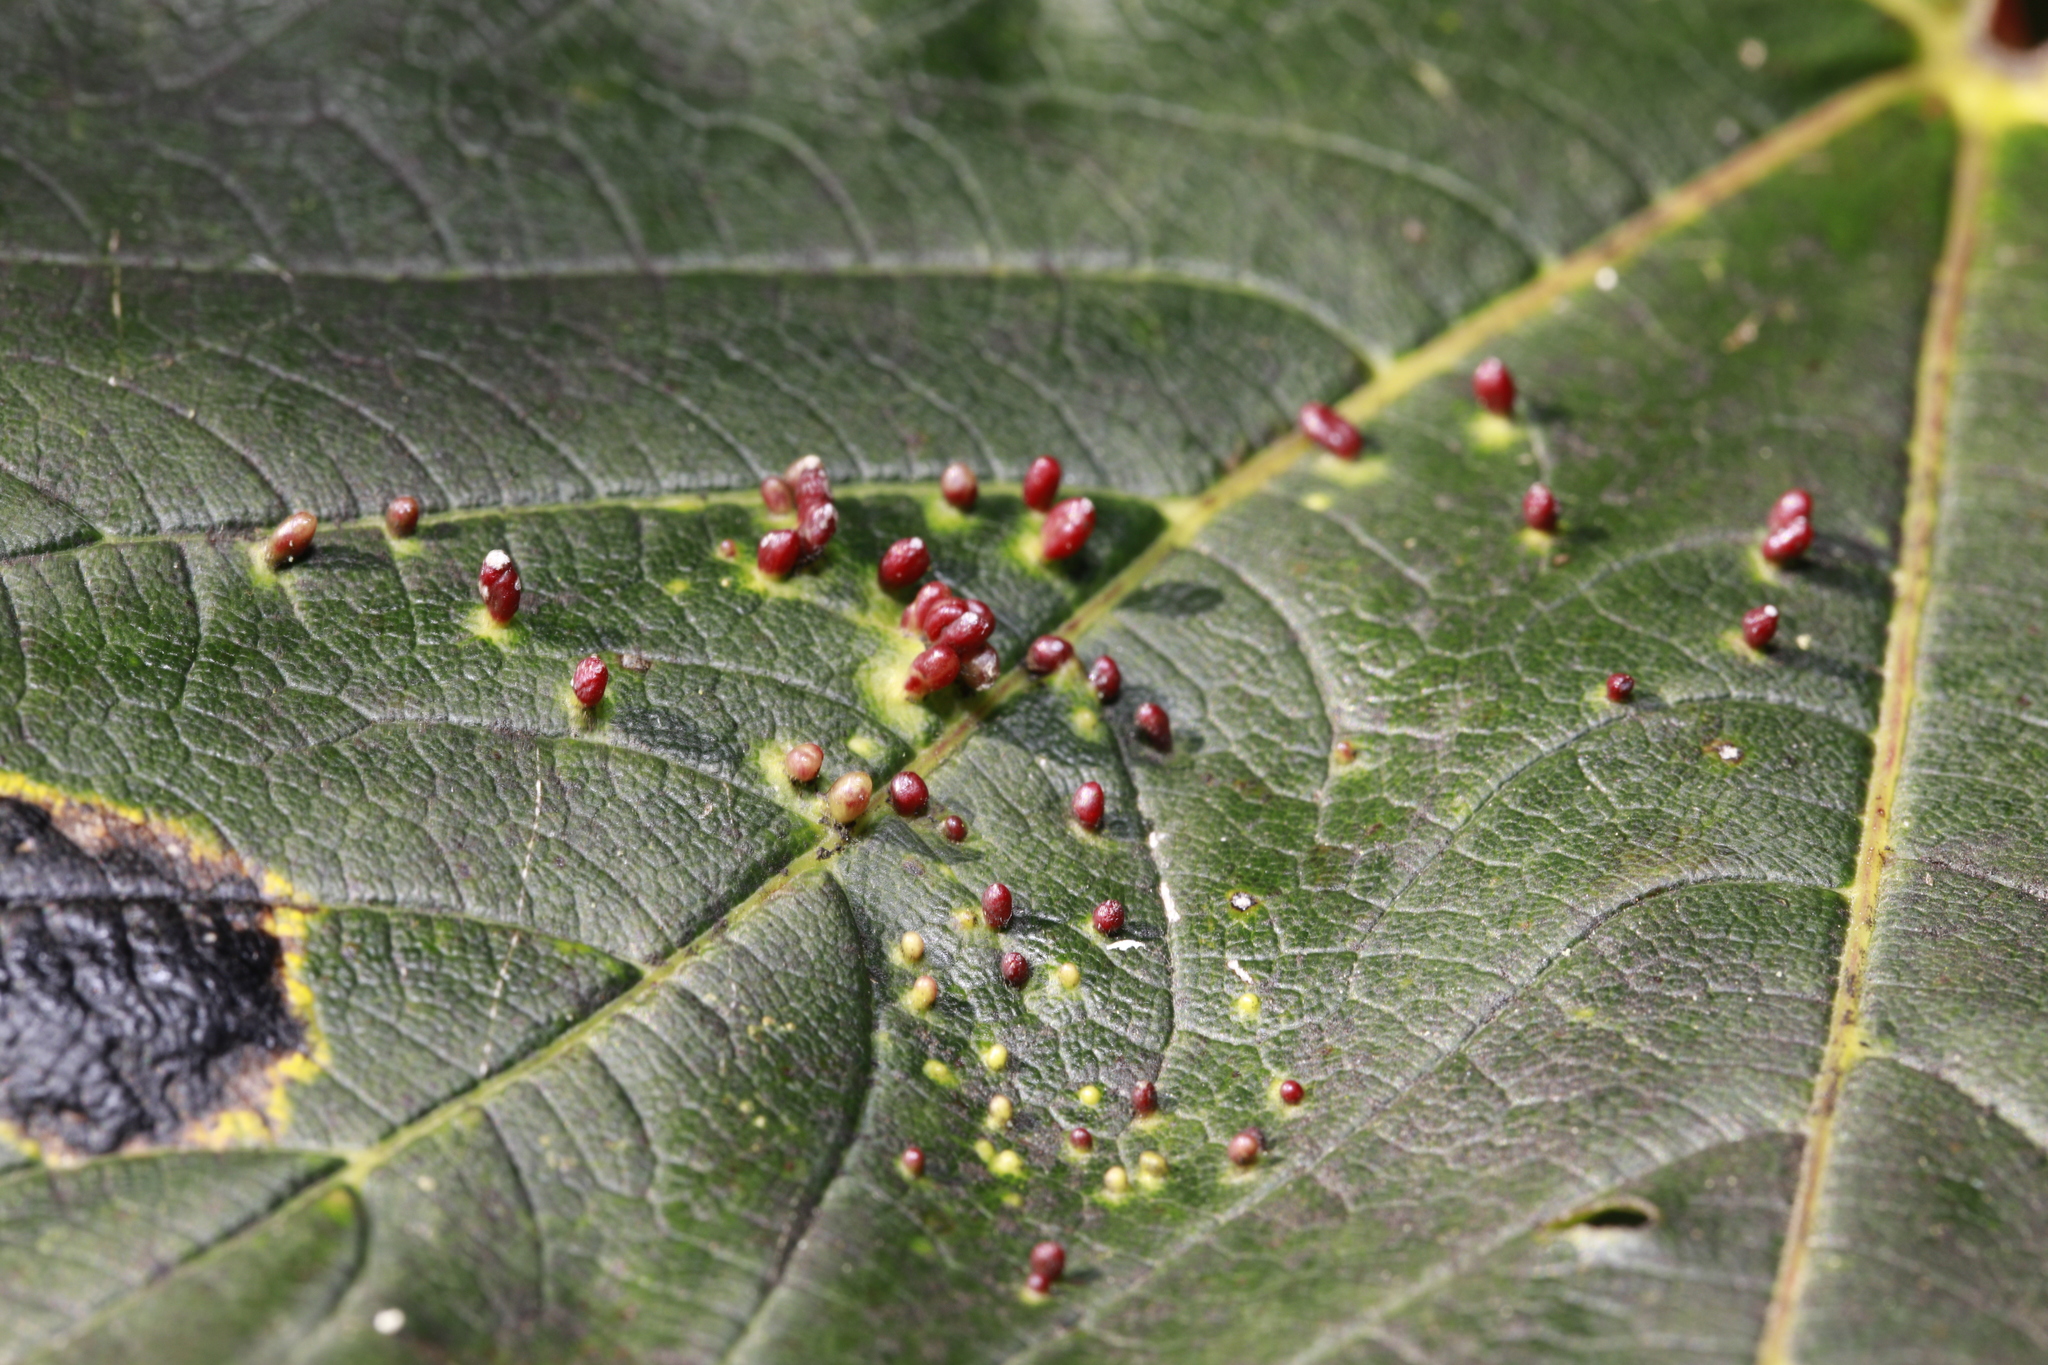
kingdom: Animalia
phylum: Arthropoda
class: Arachnida
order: Trombidiformes
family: Eriophyidae
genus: Aceria
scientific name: Aceria cephaloneus
